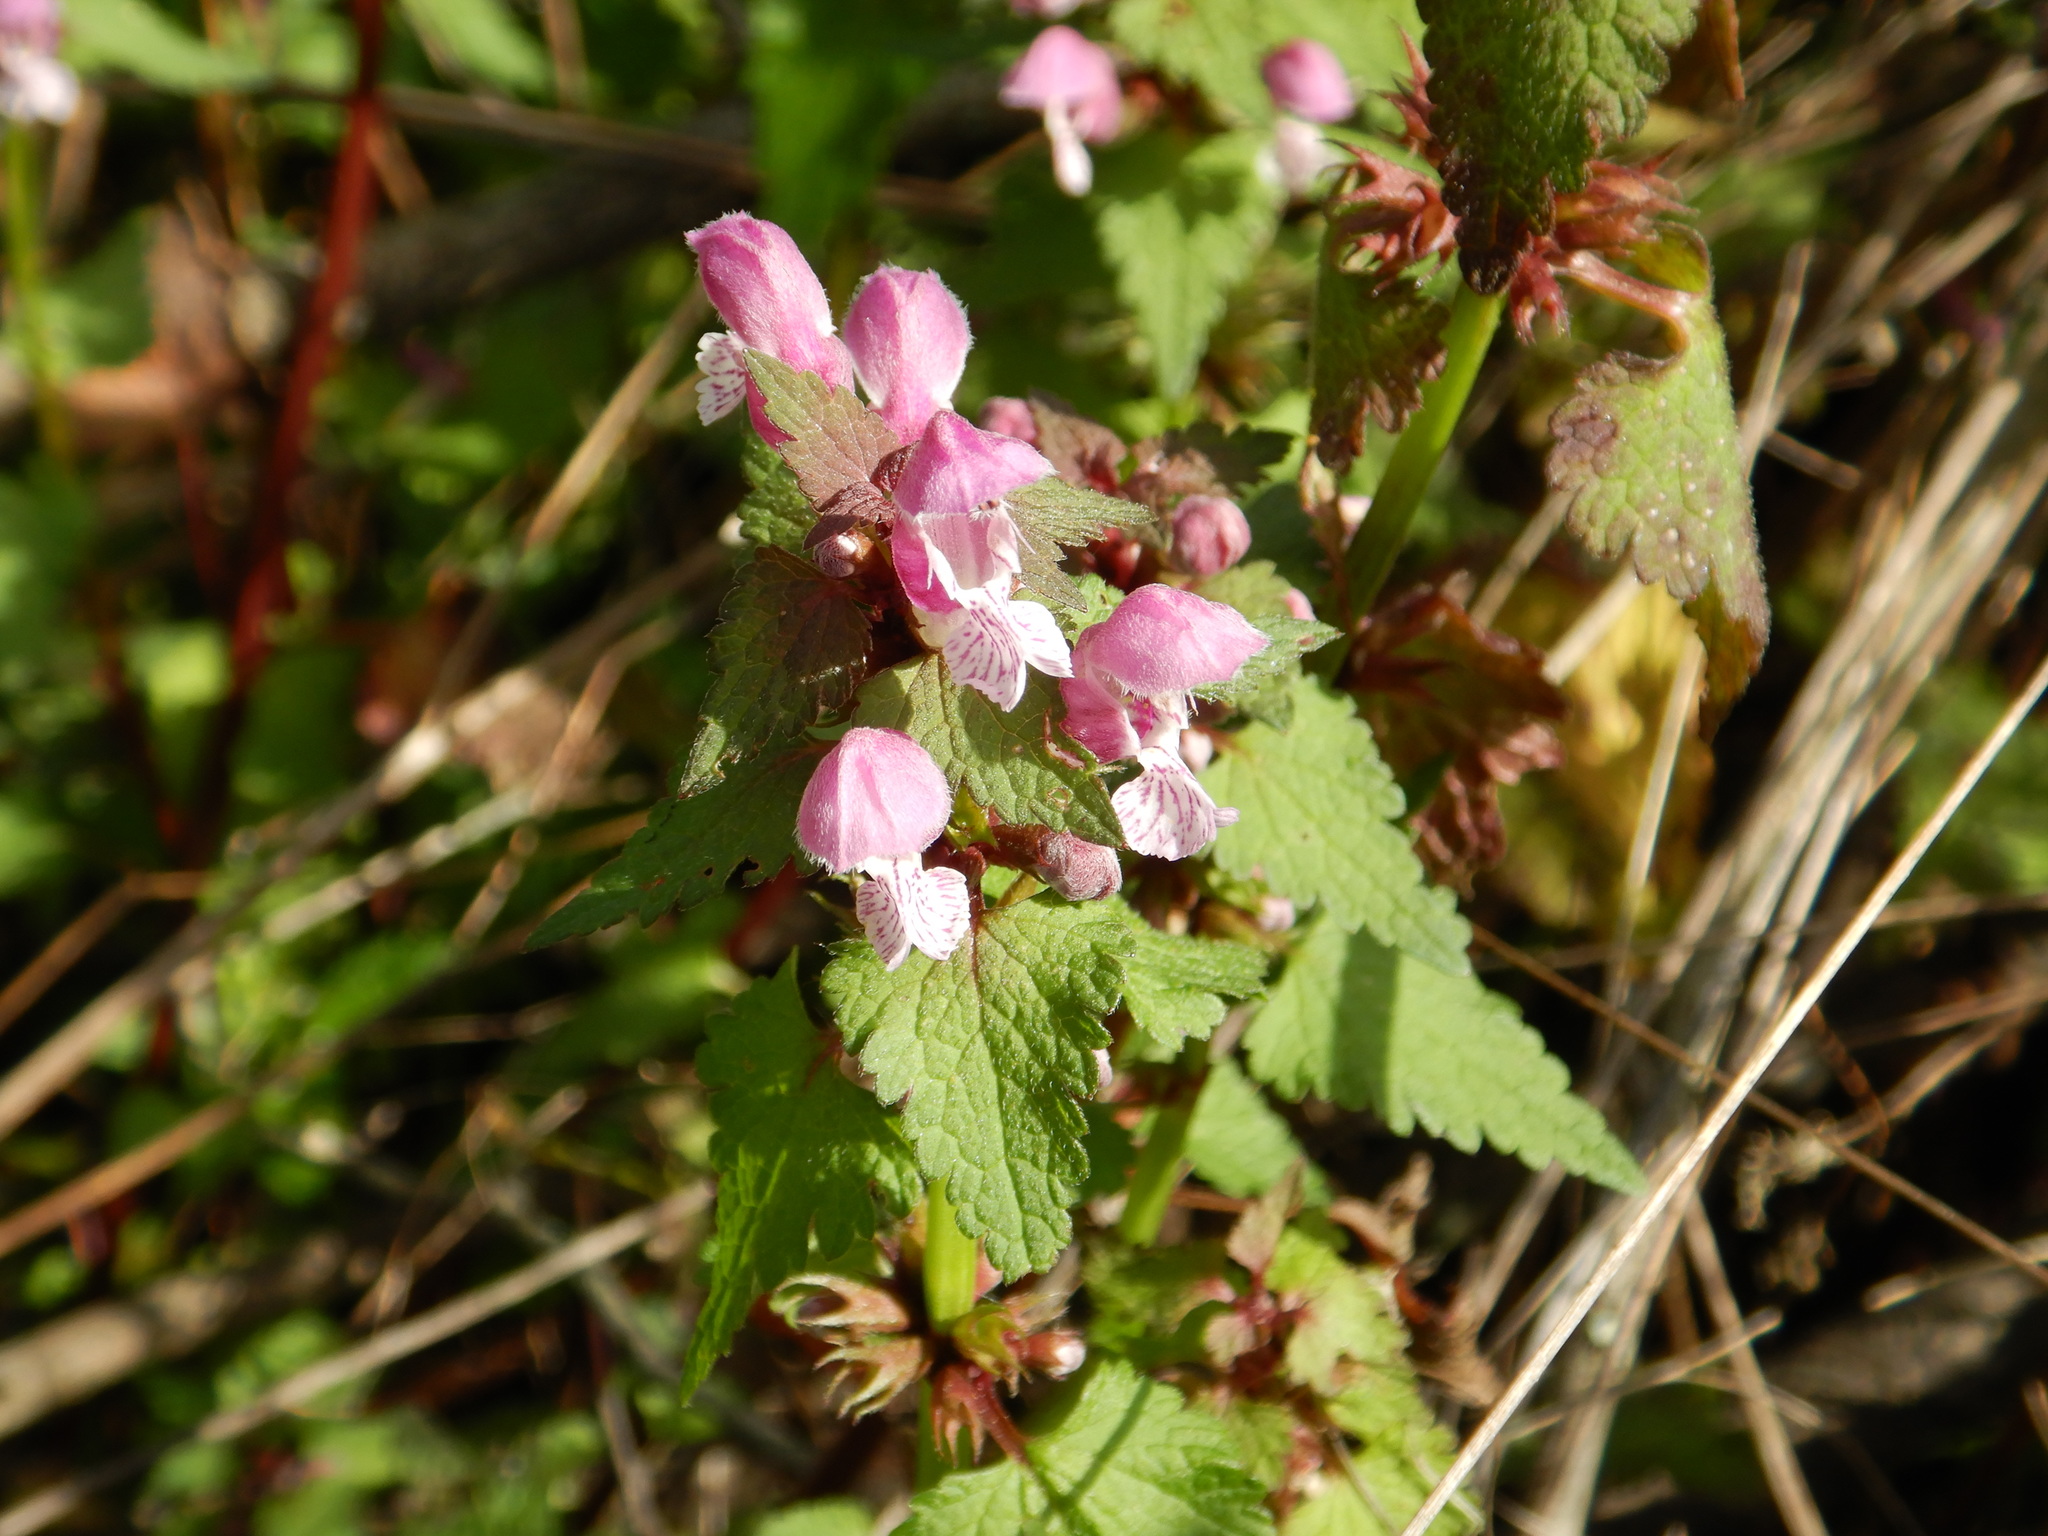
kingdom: Plantae
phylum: Tracheophyta
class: Magnoliopsida
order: Lamiales
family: Lamiaceae
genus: Lamium
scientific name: Lamium maculatum
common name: Spotted dead-nettle
